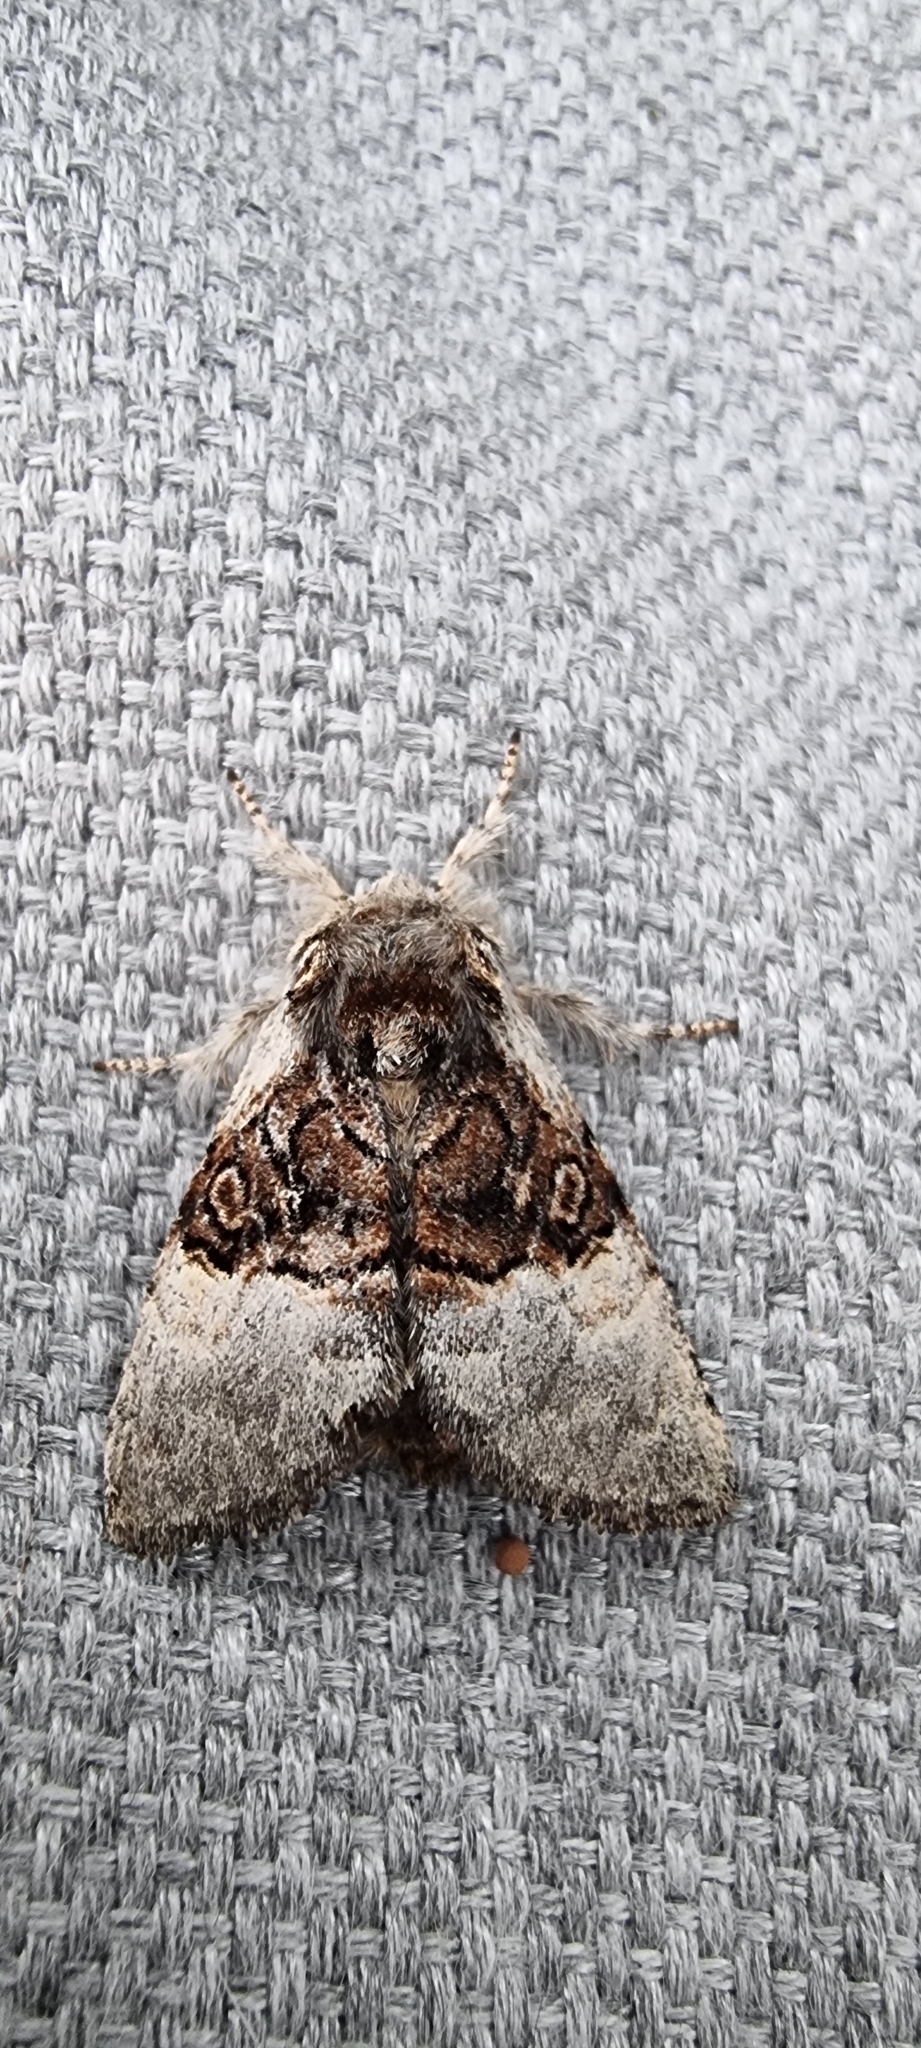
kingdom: Animalia
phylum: Arthropoda
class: Insecta
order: Lepidoptera
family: Noctuidae
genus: Colocasia
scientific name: Colocasia coryli
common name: Nut-tree tussock
